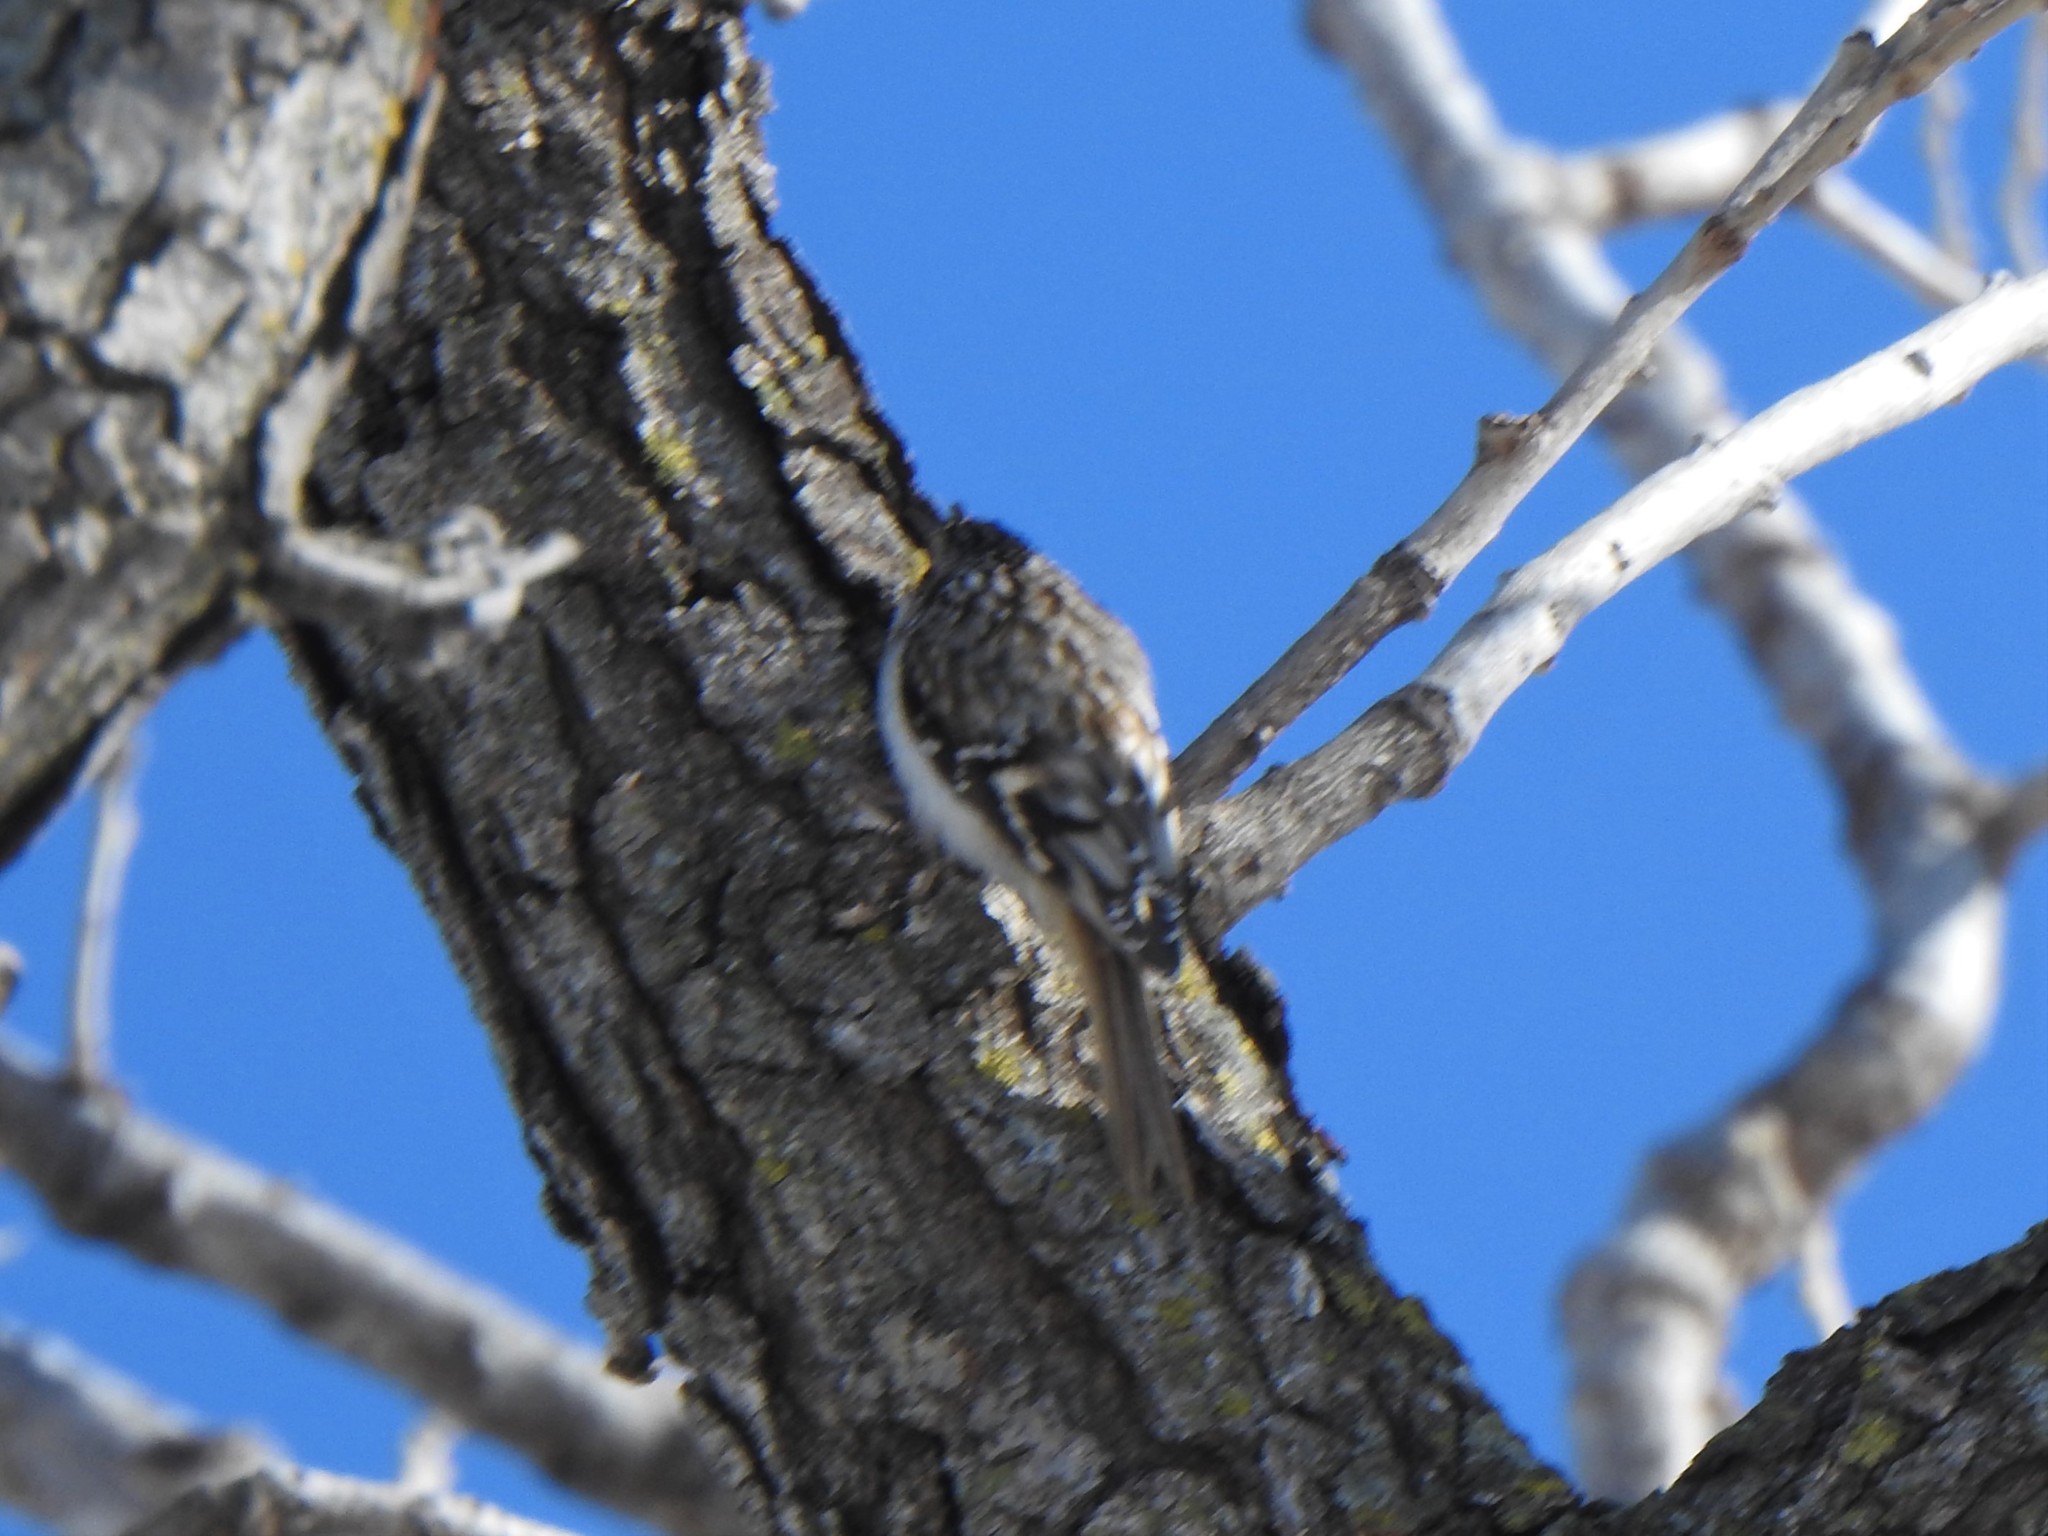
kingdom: Animalia
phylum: Chordata
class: Aves
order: Passeriformes
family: Certhiidae
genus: Certhia
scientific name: Certhia americana
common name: Brown creeper
